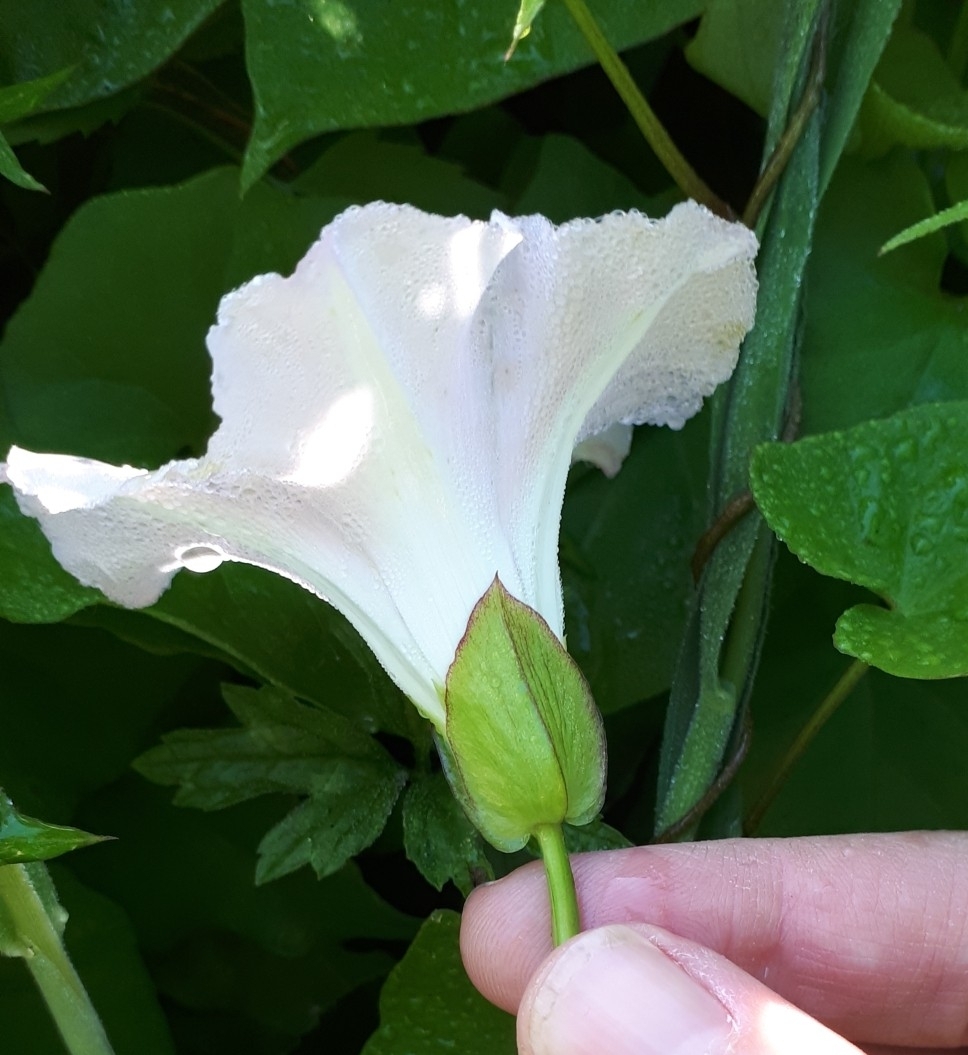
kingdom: Plantae
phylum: Tracheophyta
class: Magnoliopsida
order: Solanales
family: Convolvulaceae
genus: Calystegia
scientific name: Calystegia
